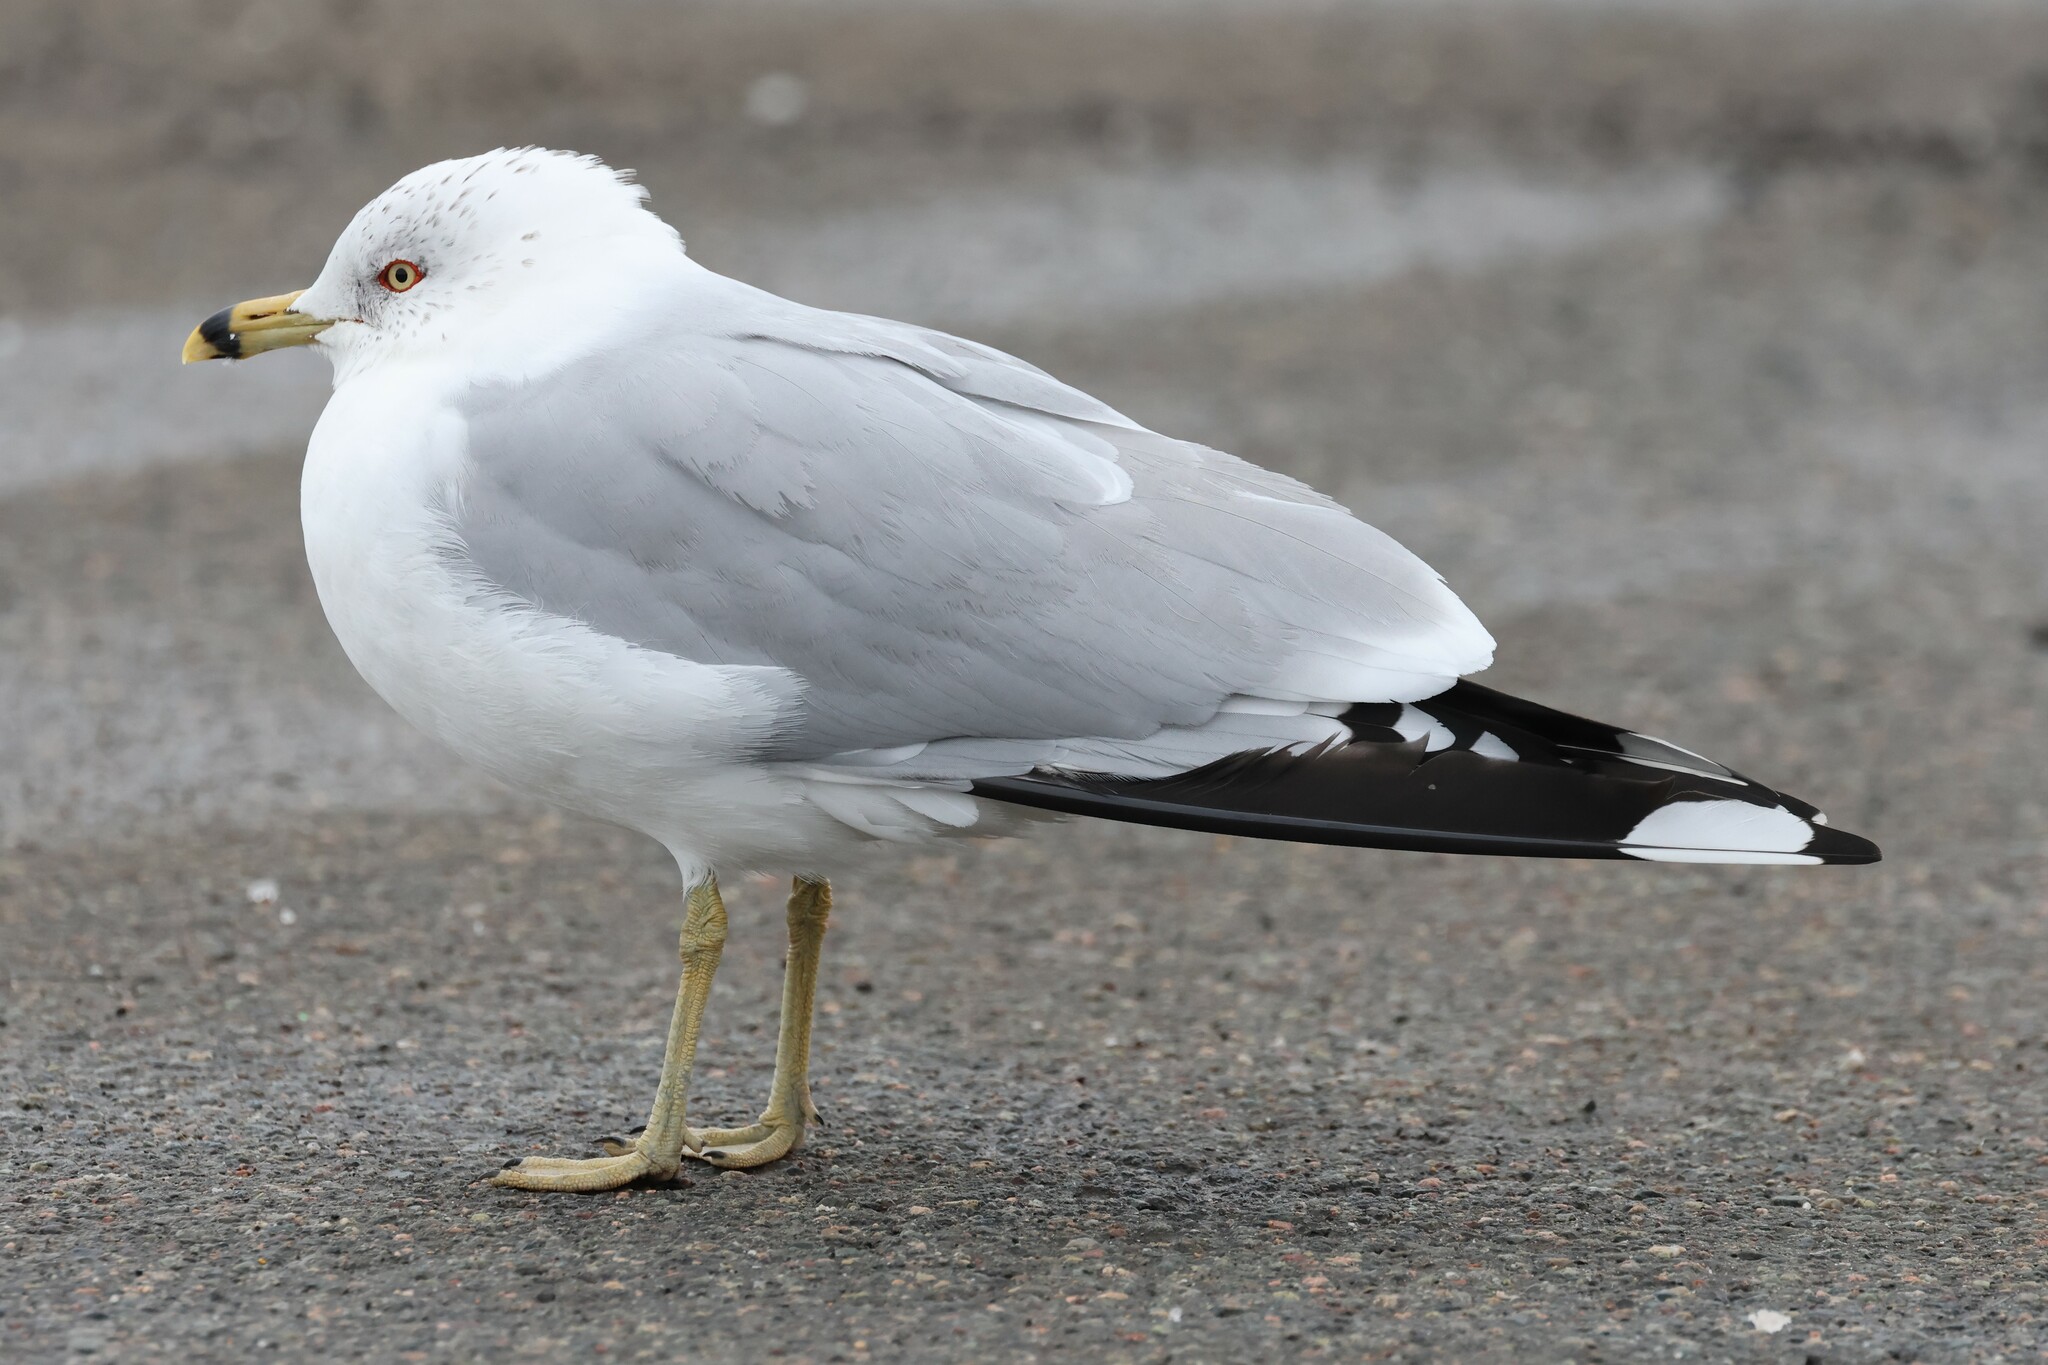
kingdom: Animalia
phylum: Chordata
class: Aves
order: Charadriiformes
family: Laridae
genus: Larus
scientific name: Larus delawarensis
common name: Ring-billed gull
